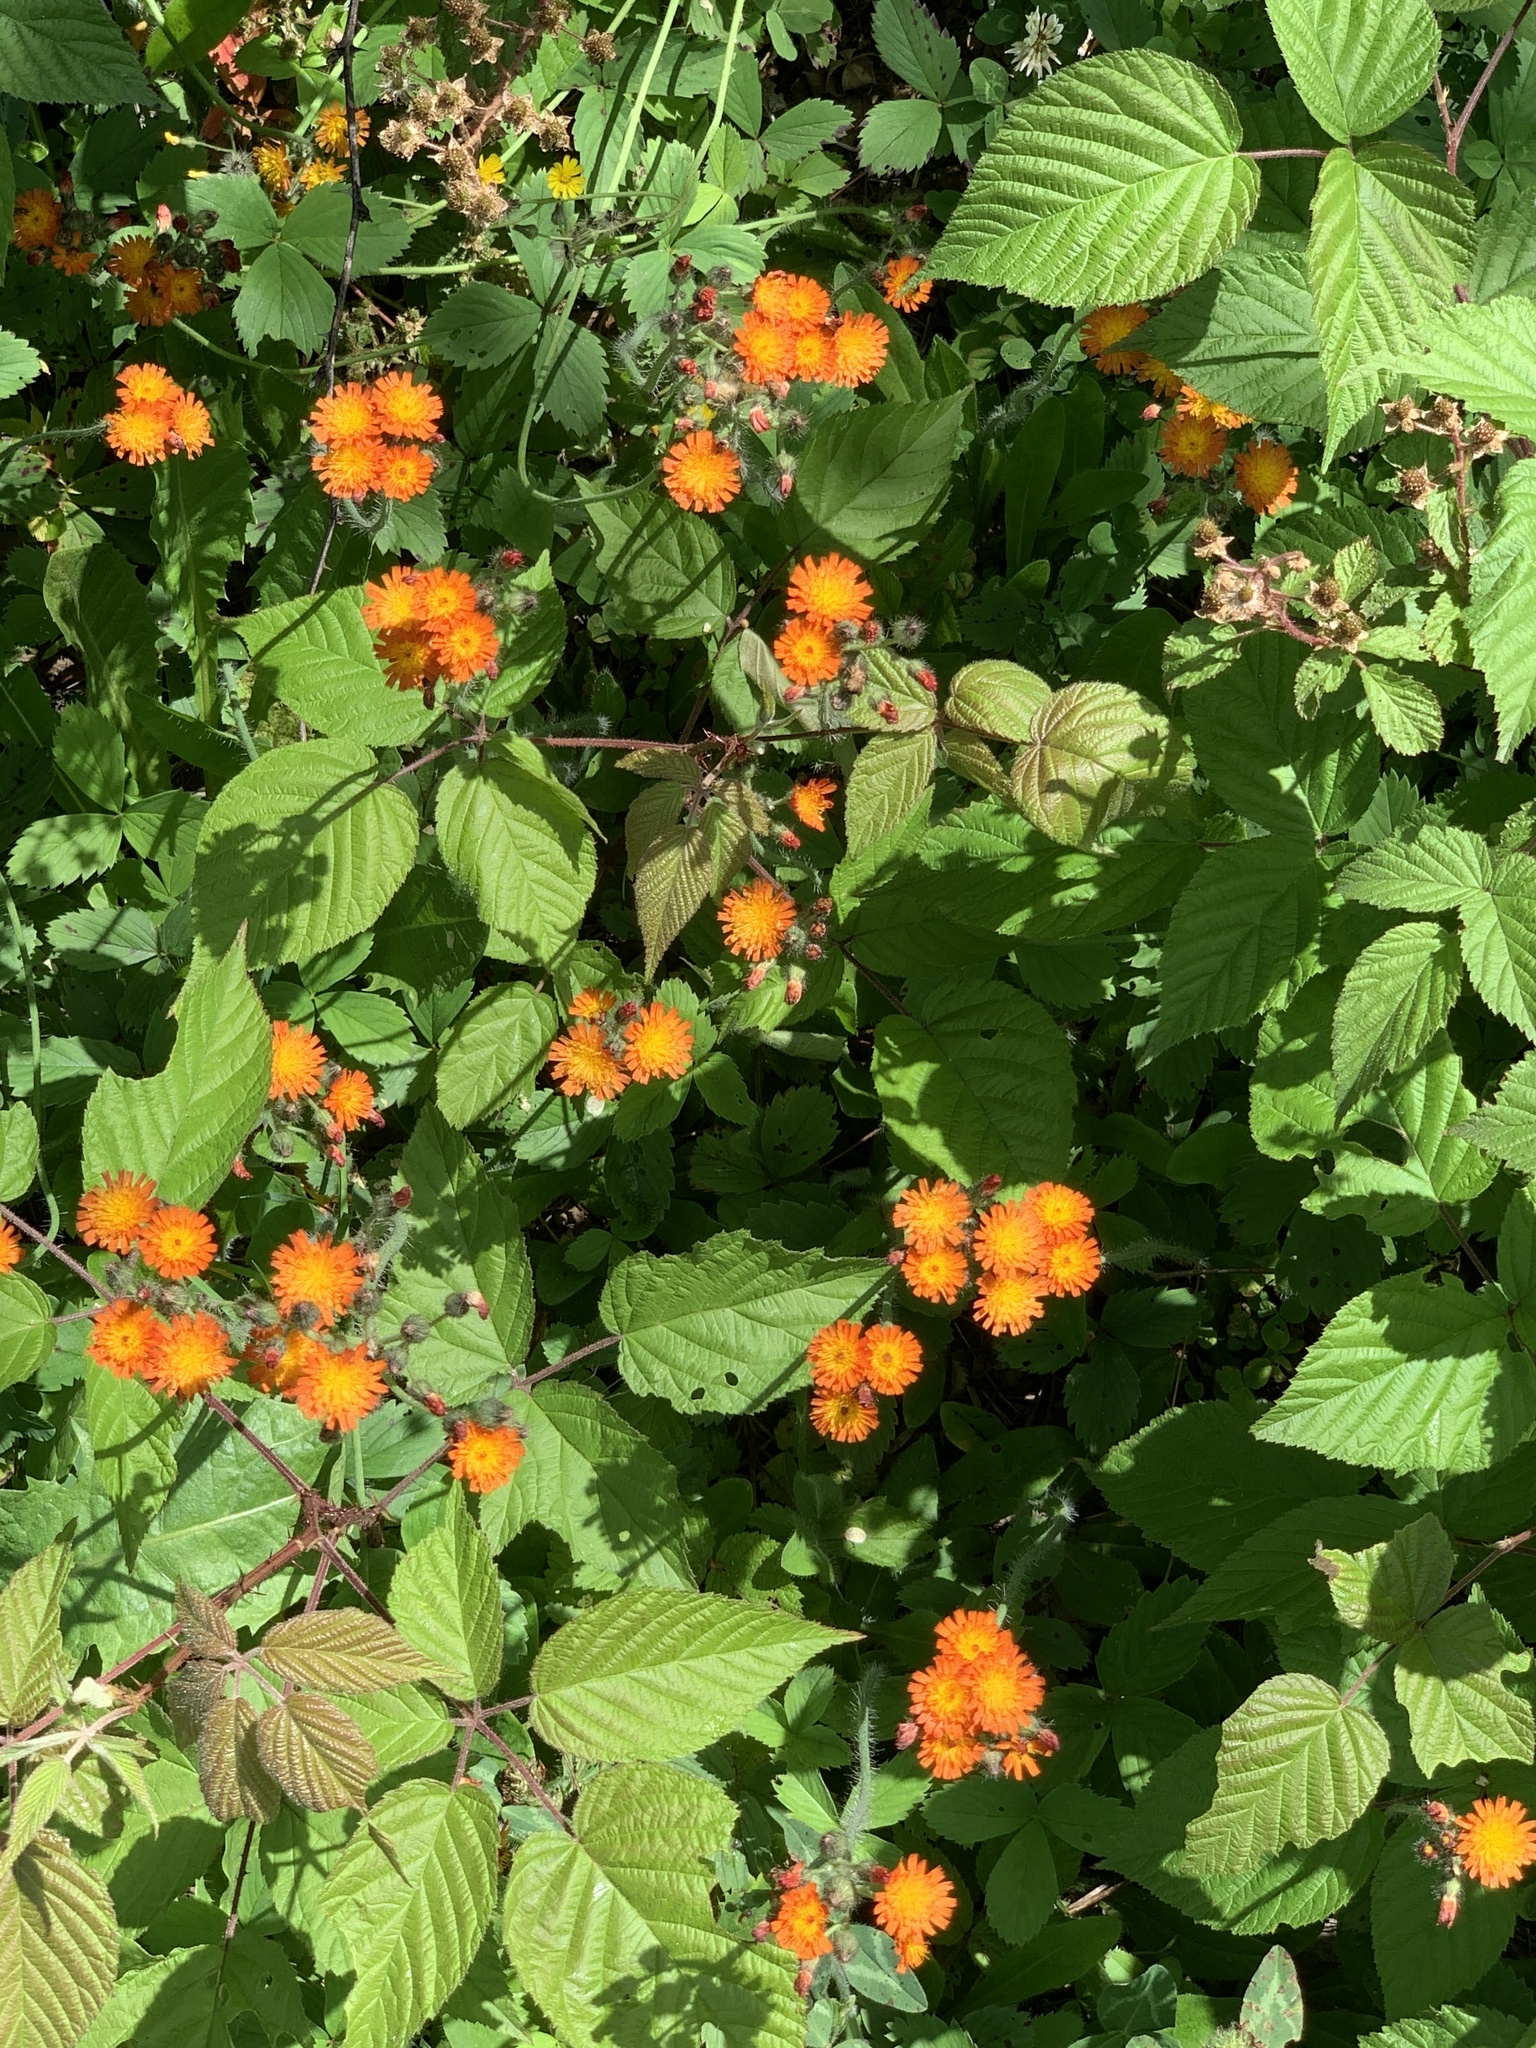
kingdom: Plantae
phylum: Tracheophyta
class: Magnoliopsida
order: Asterales
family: Asteraceae
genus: Pilosella
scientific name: Pilosella aurantiaca
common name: Fox-and-cubs
